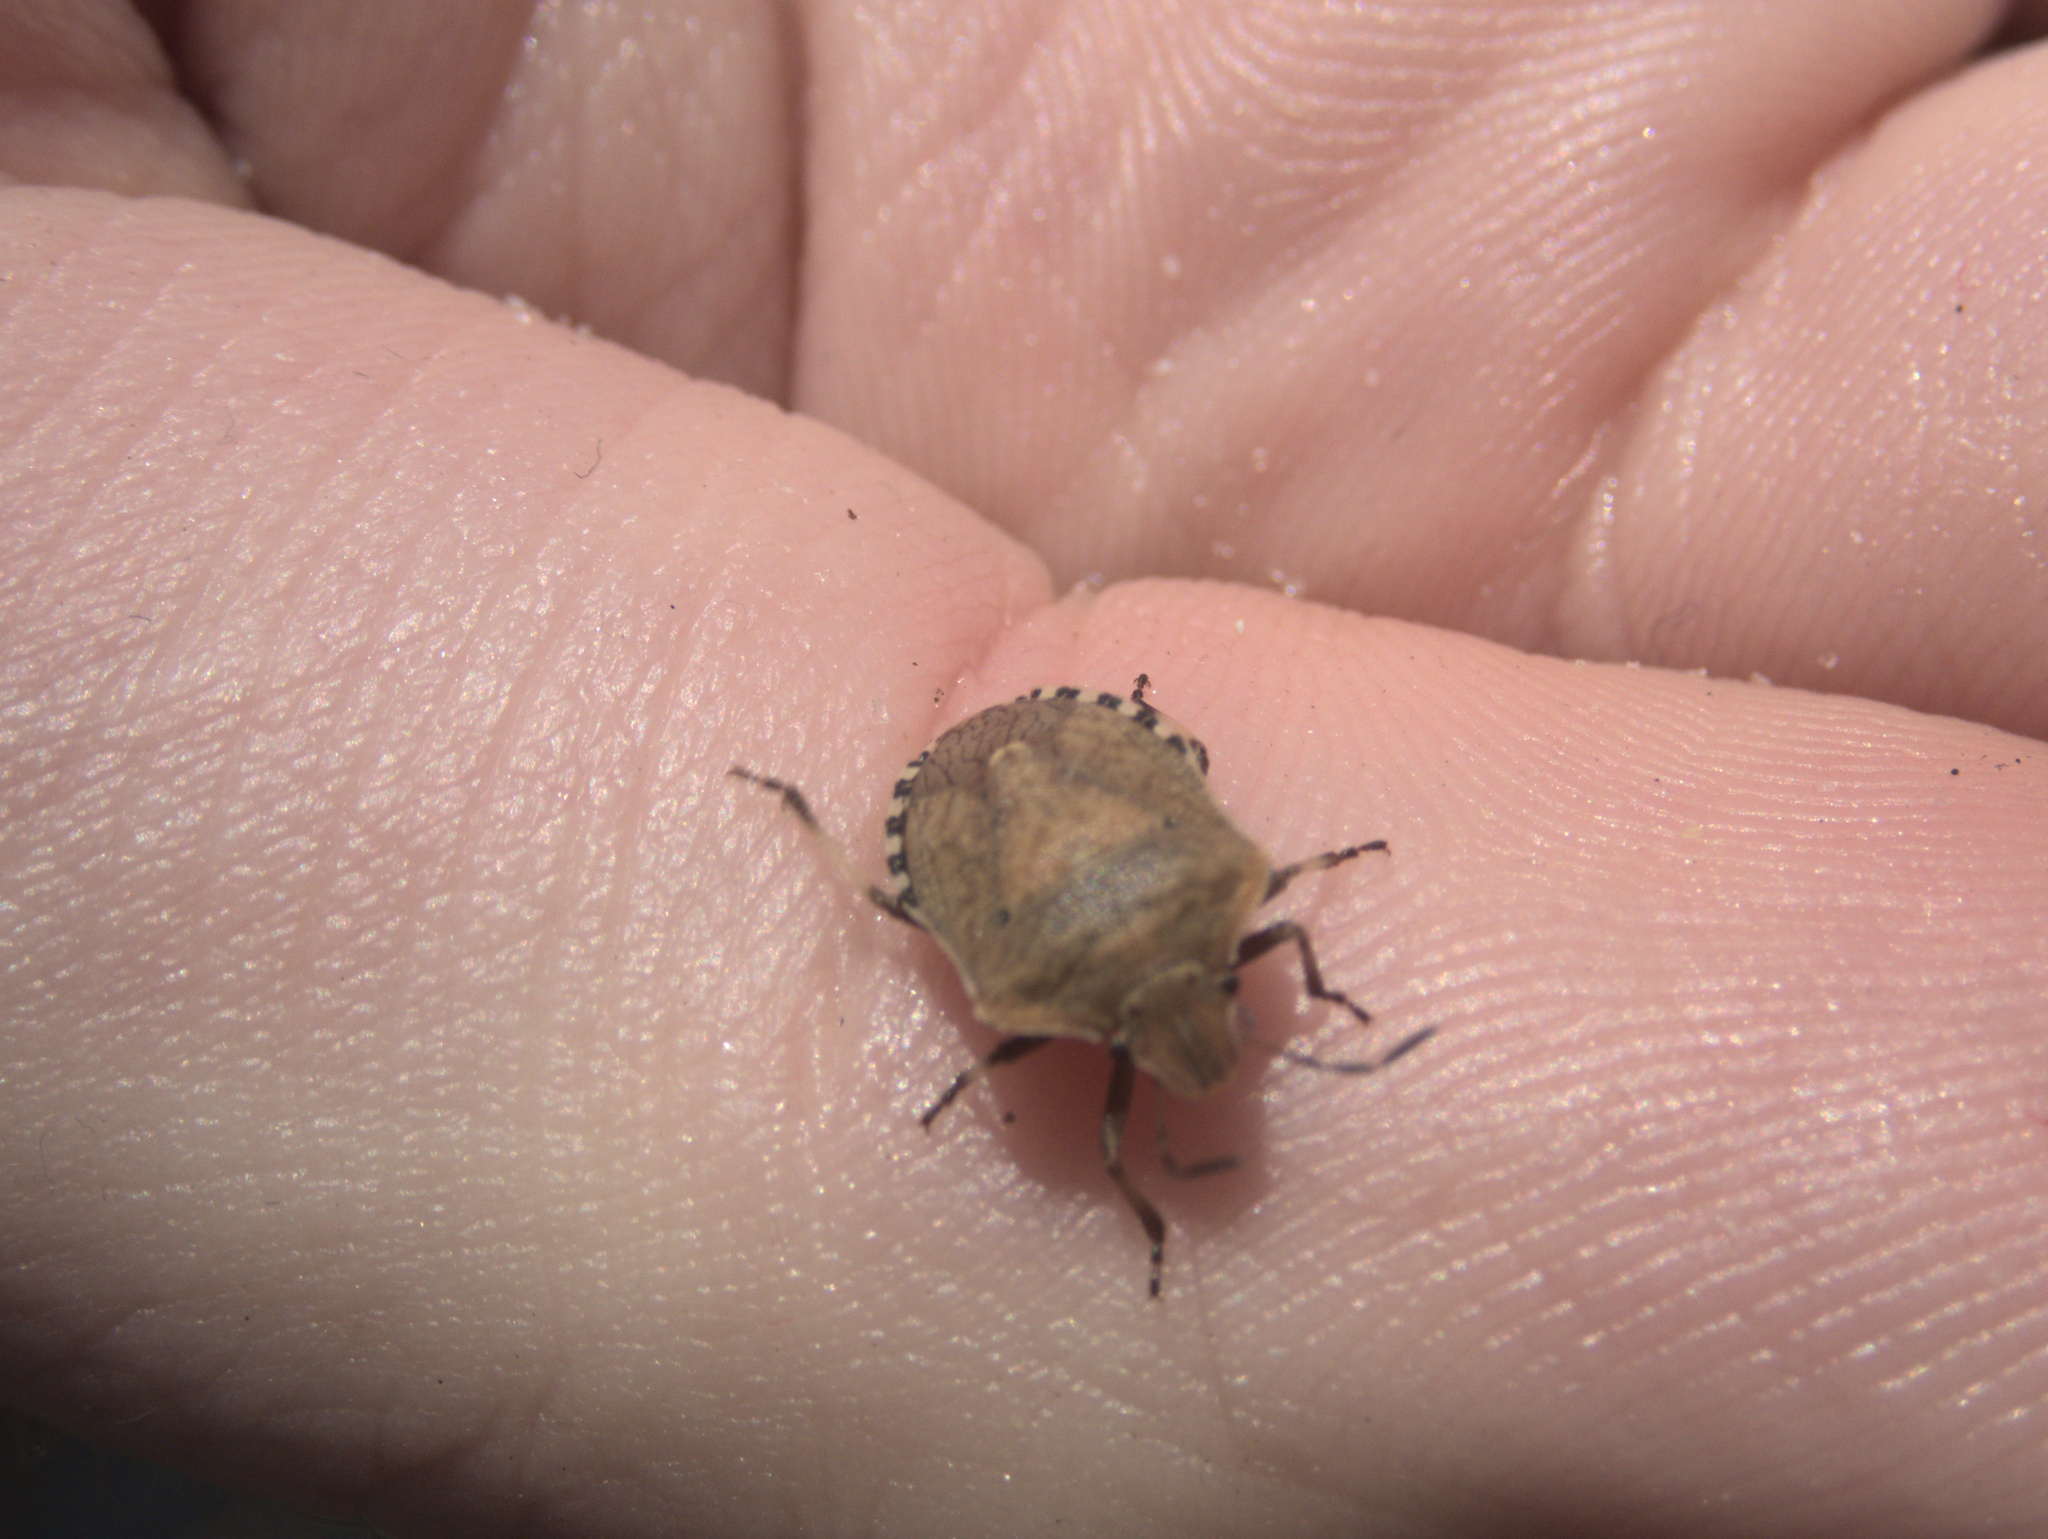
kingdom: Animalia
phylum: Arthropoda
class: Insecta
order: Hemiptera
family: Pentatomidae
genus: Dictyotus
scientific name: Dictyotus caenosus
